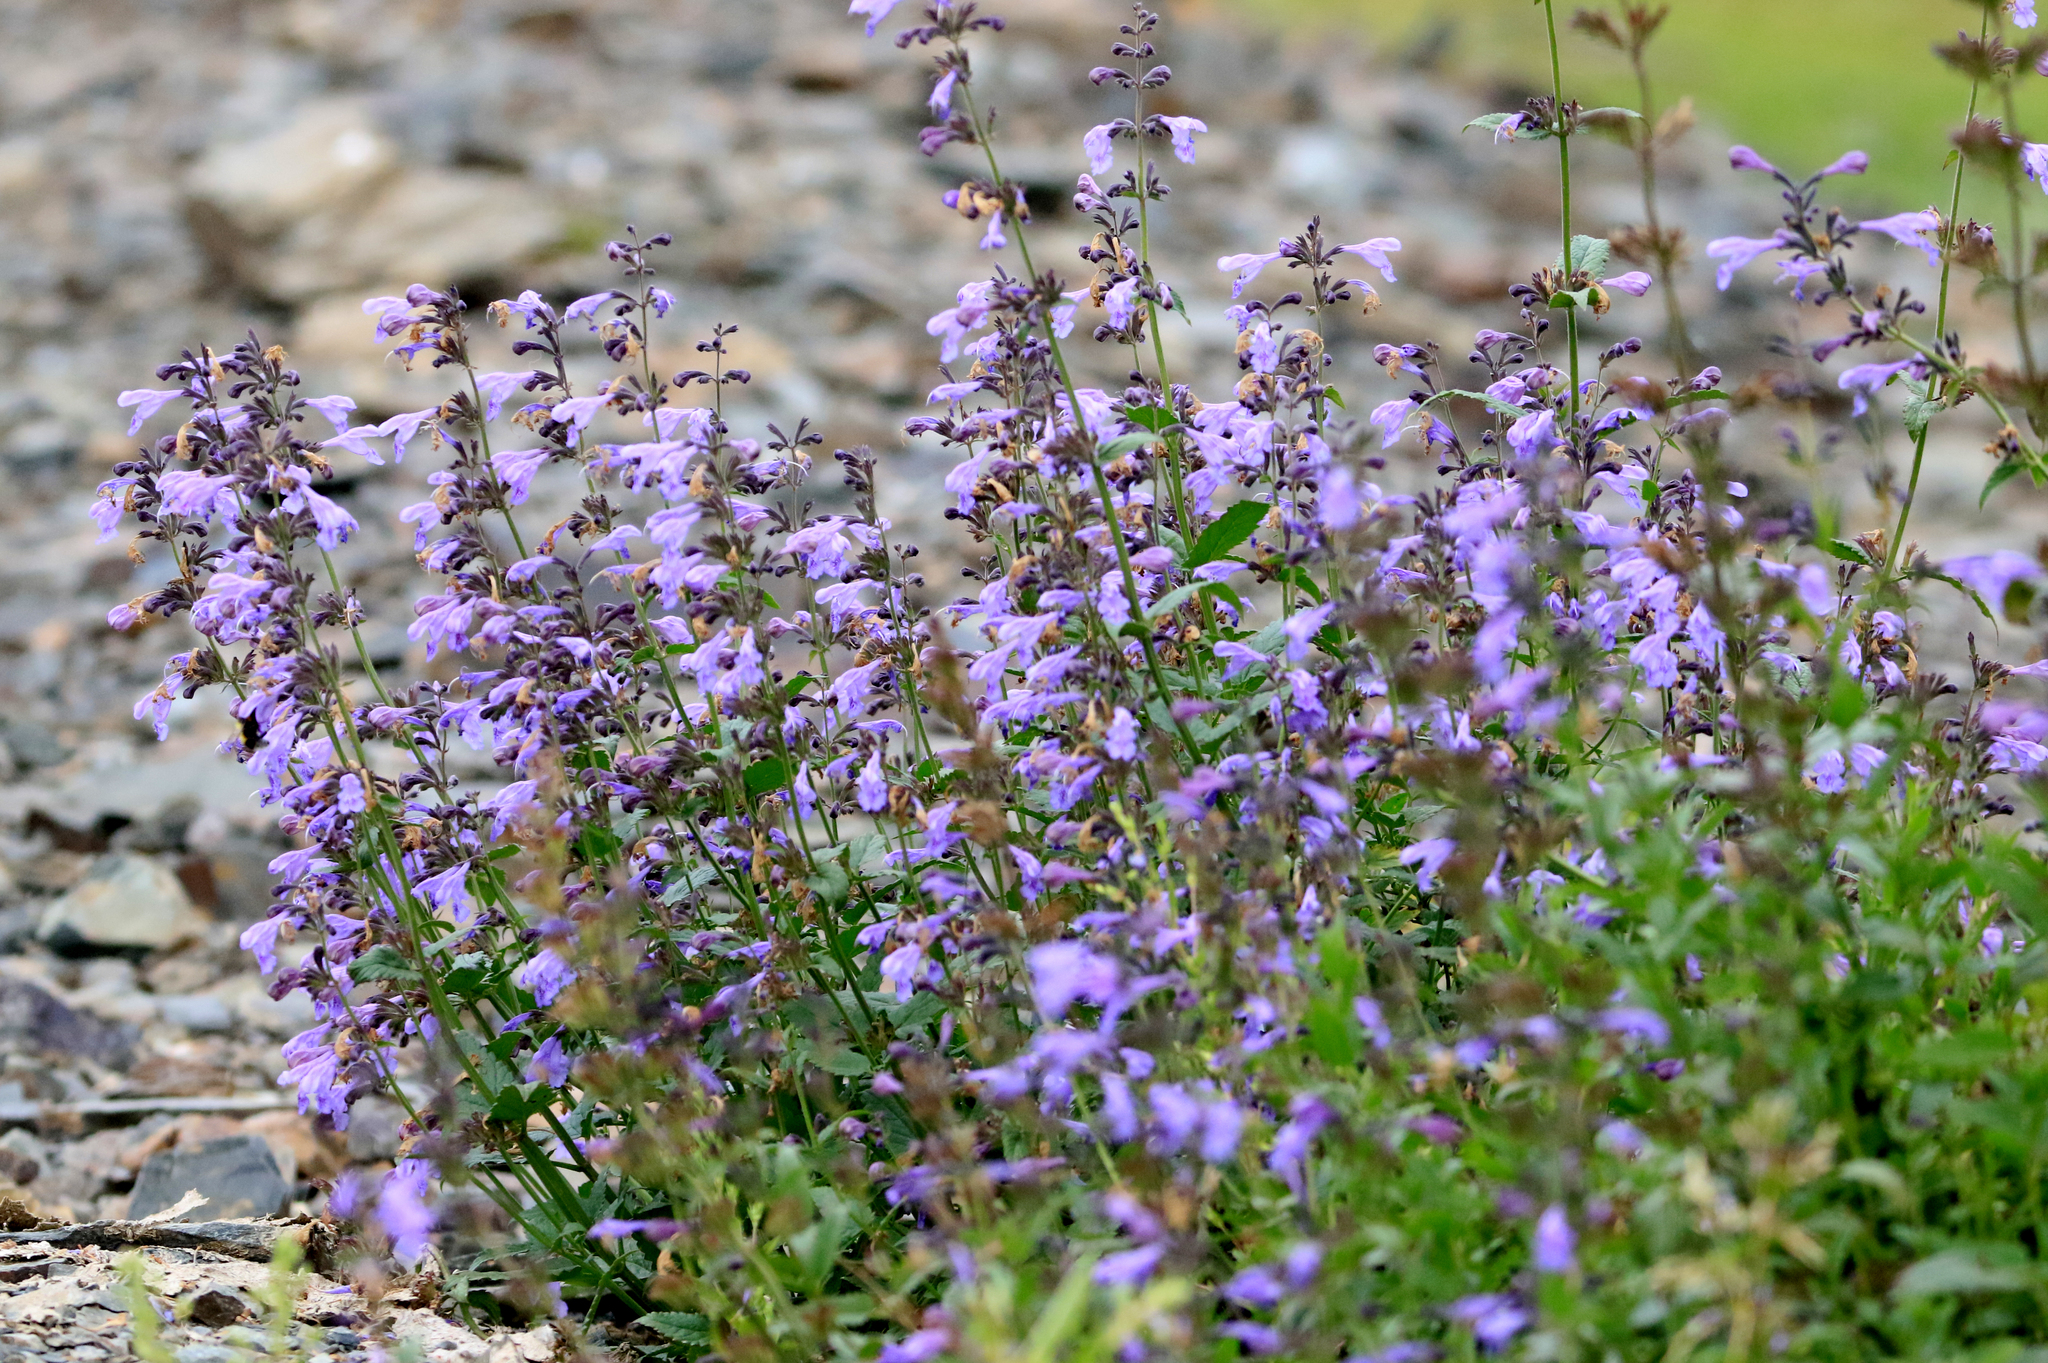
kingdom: Plantae
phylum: Tracheophyta
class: Magnoliopsida
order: Lamiales
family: Lamiaceae
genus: Nepeta
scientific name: Nepeta sibirica
